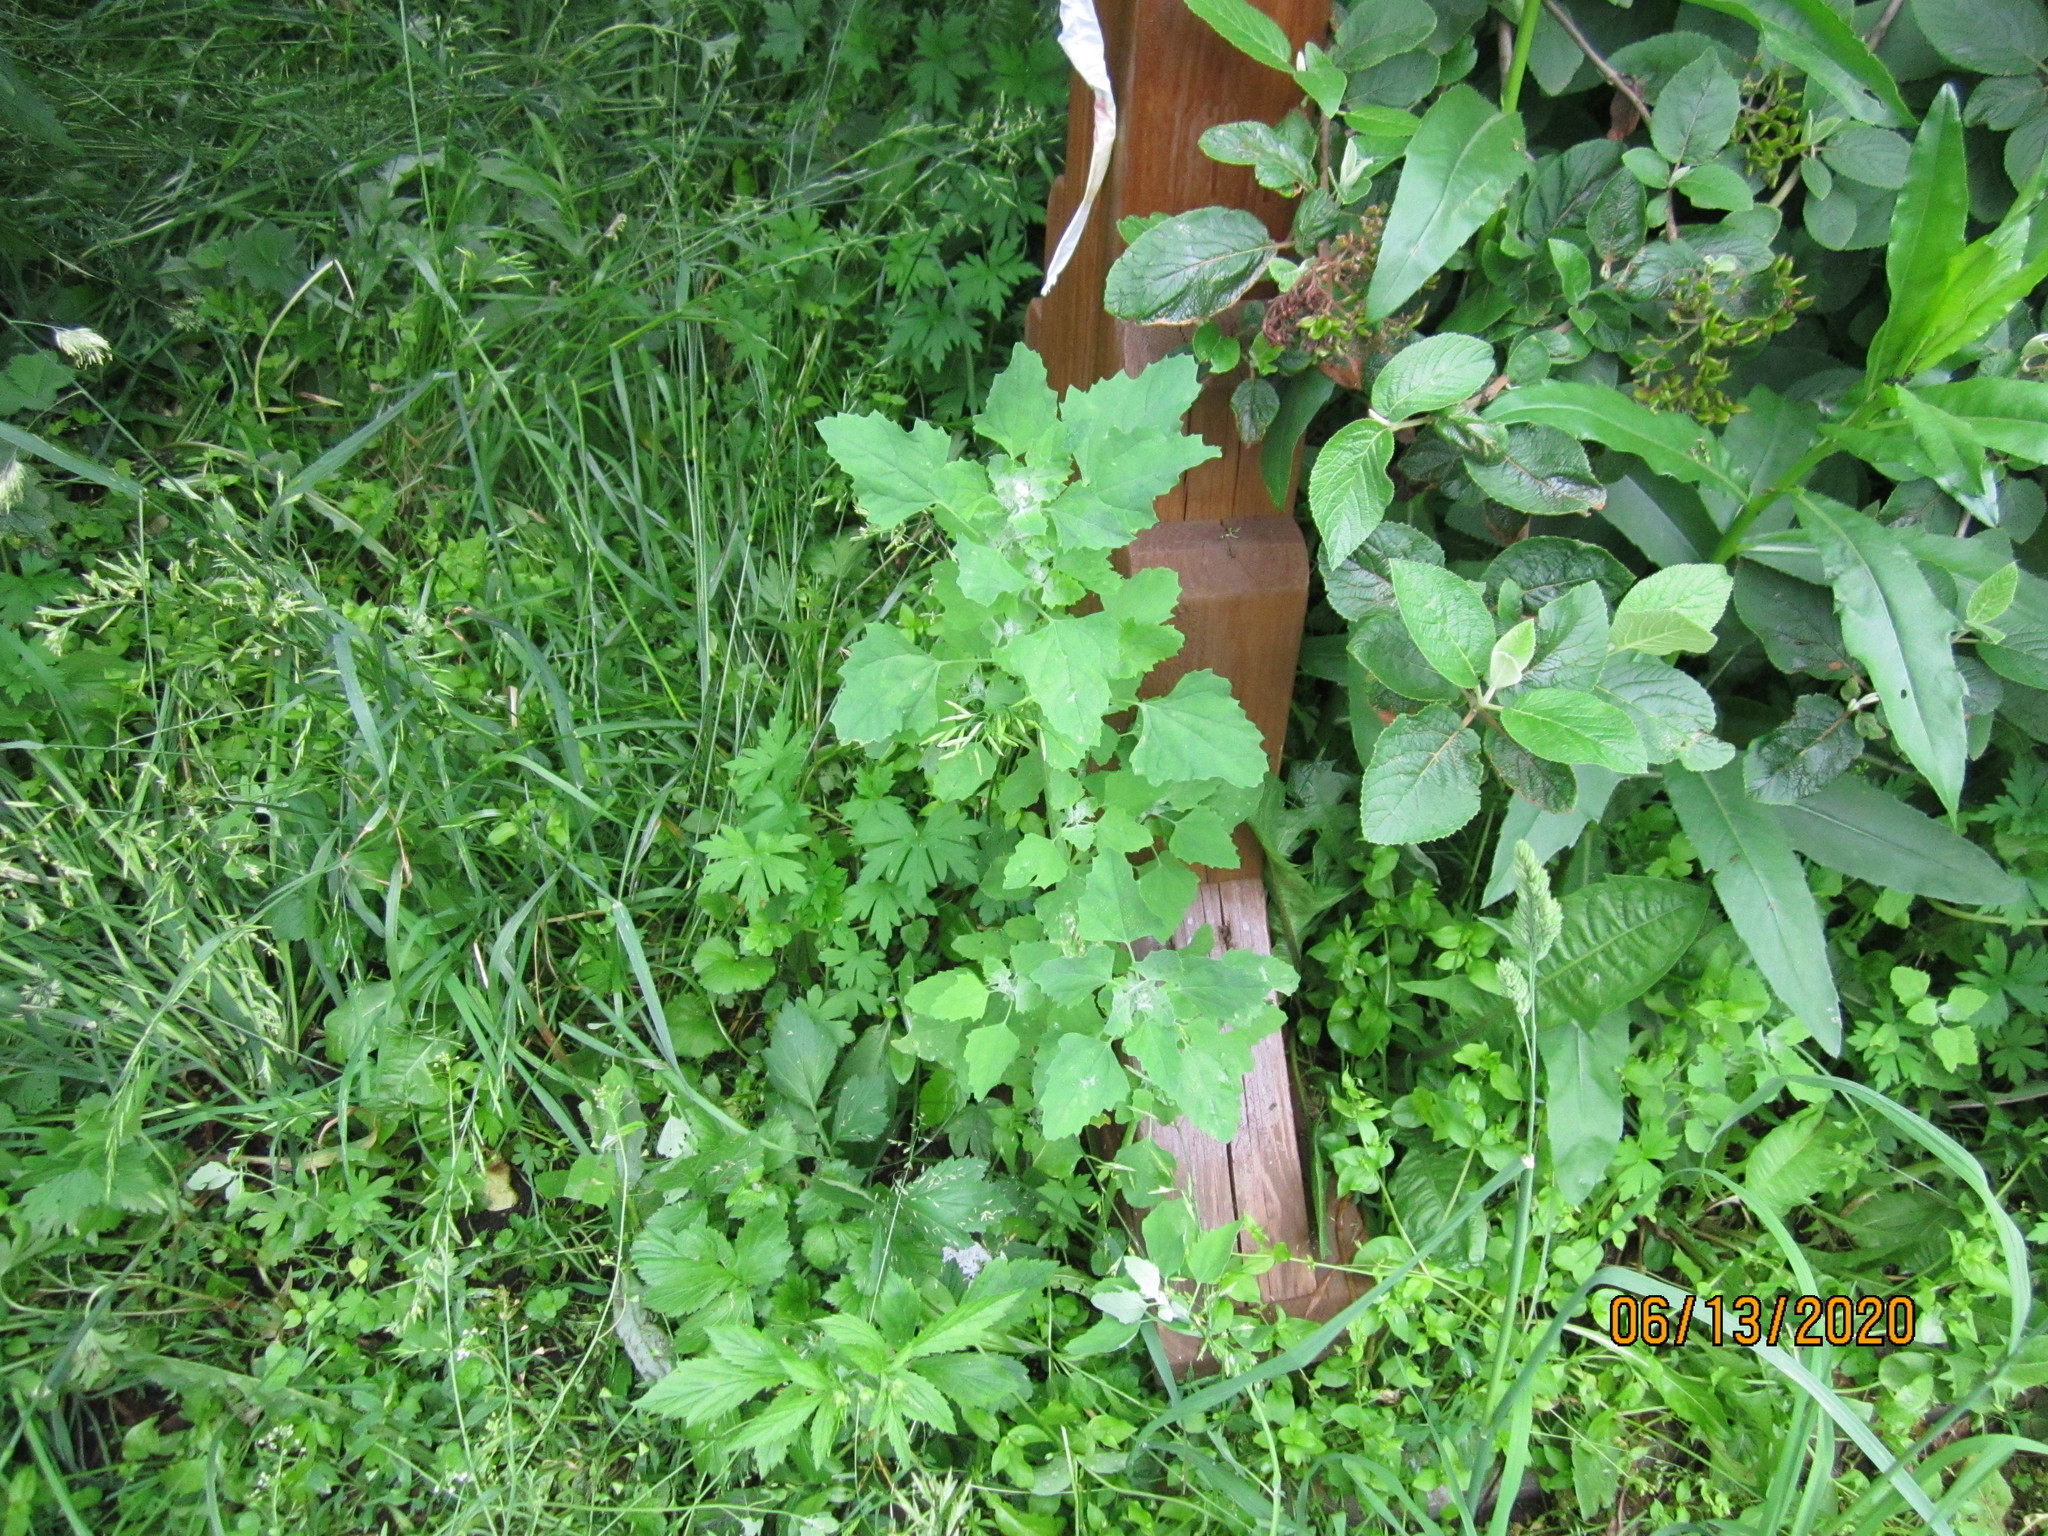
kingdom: Plantae
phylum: Tracheophyta
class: Magnoliopsida
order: Caryophyllales
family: Amaranthaceae
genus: Chenopodium
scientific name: Chenopodium album
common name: Fat-hen
